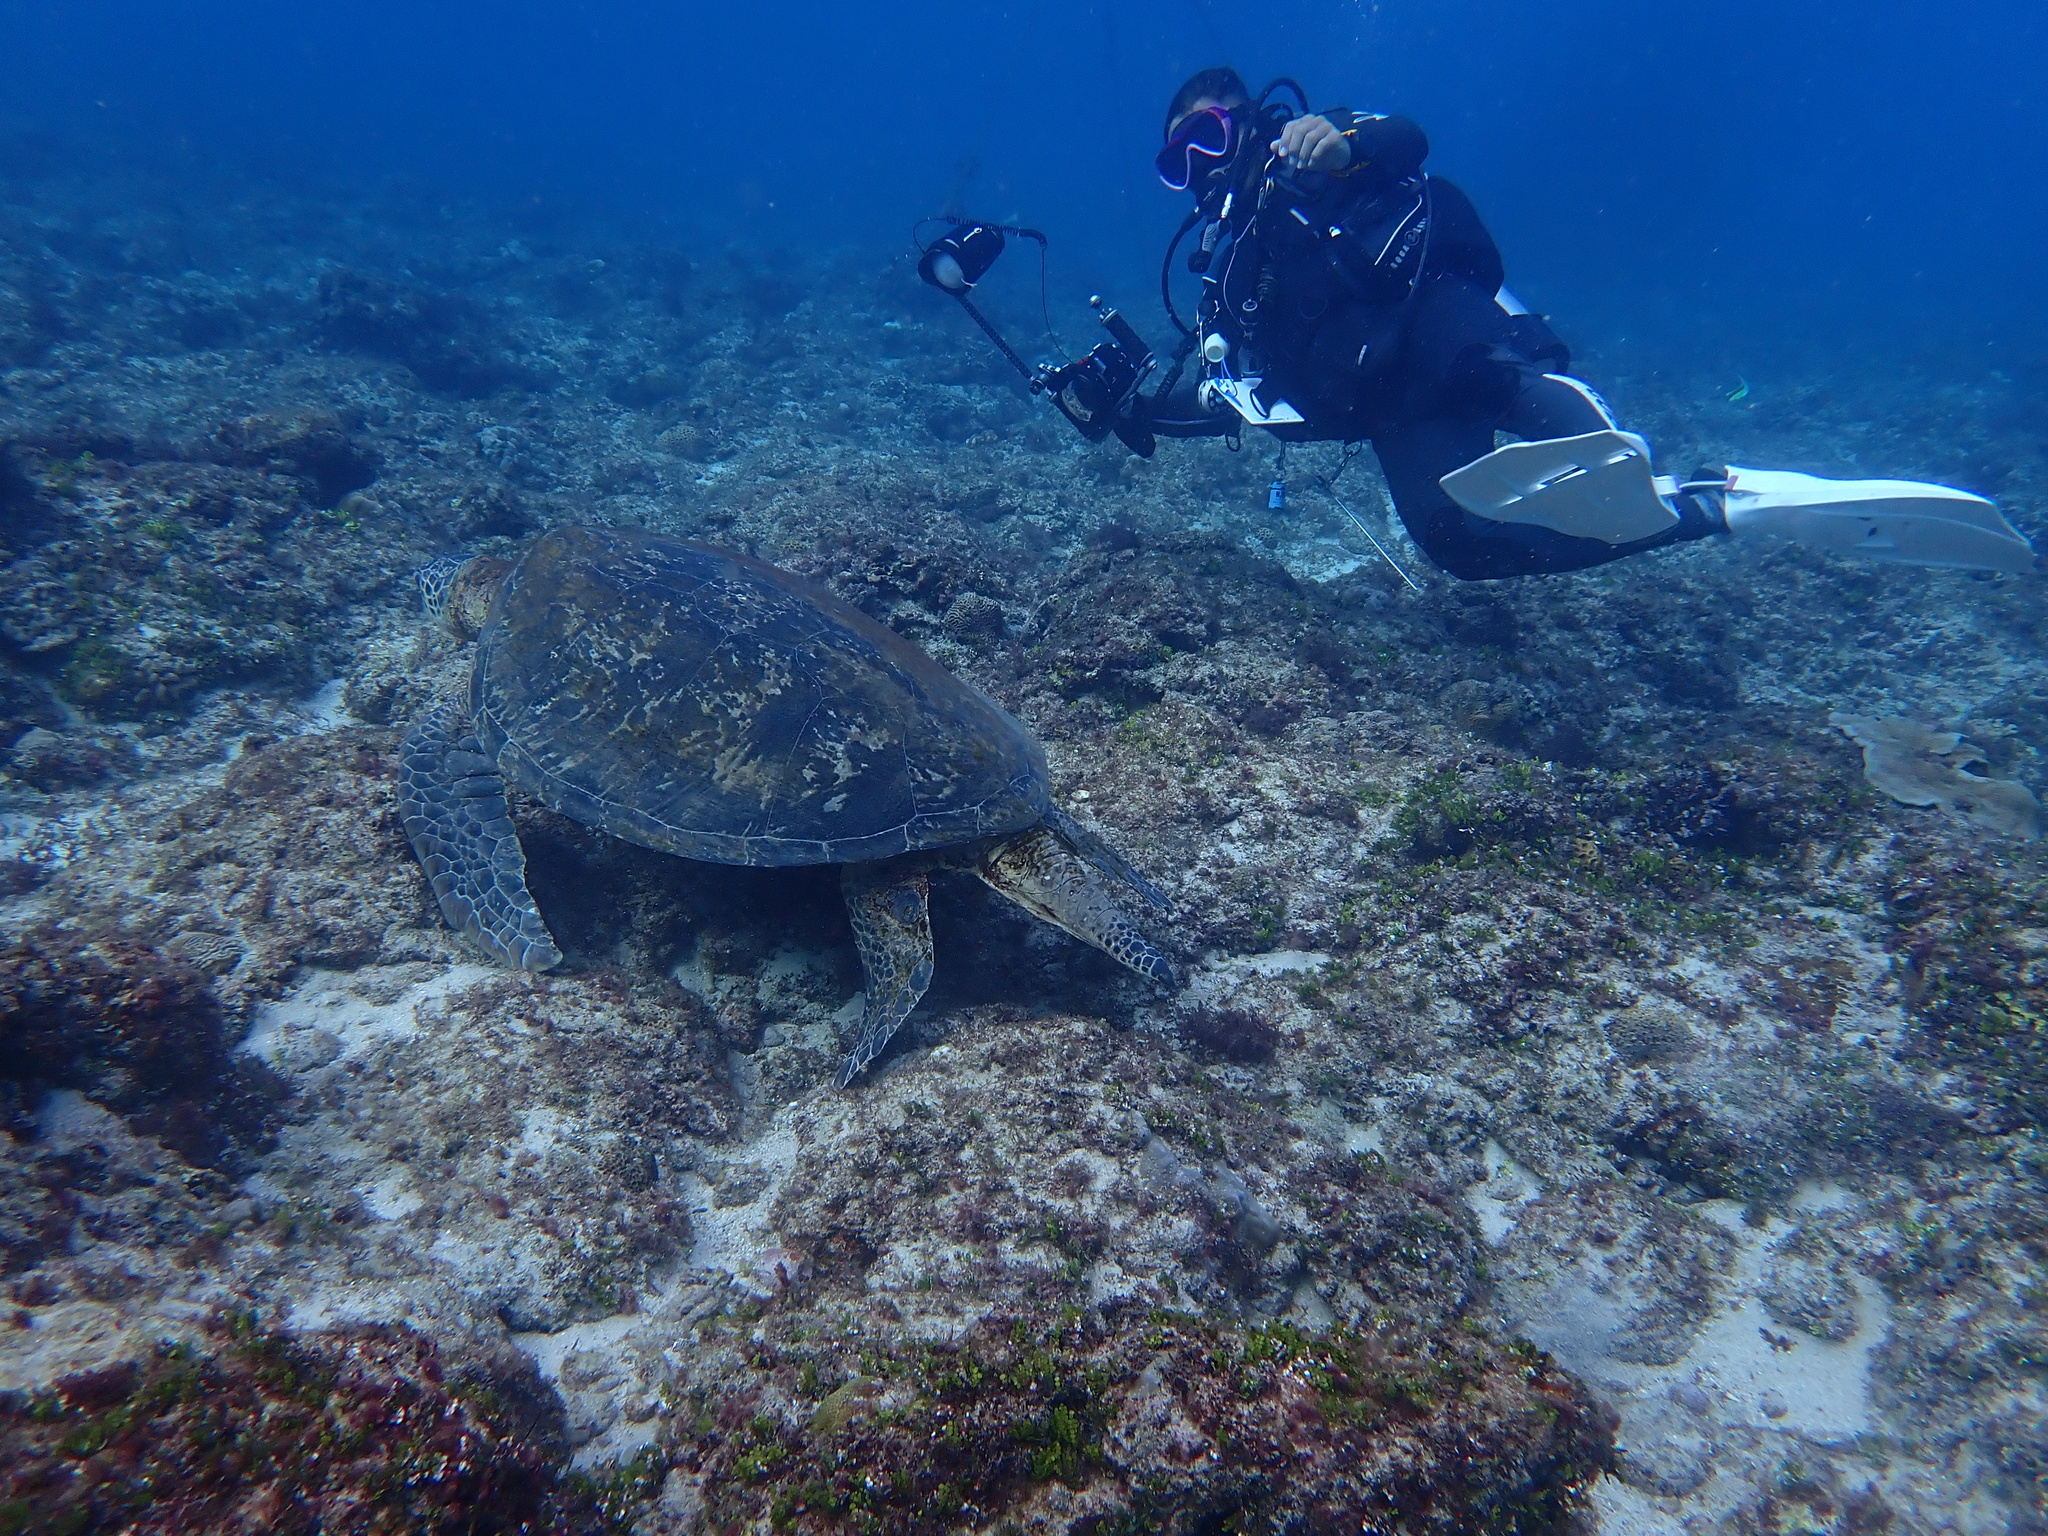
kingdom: Animalia
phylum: Chordata
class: Testudines
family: Cheloniidae
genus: Chelonia
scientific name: Chelonia mydas
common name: Green turtle
